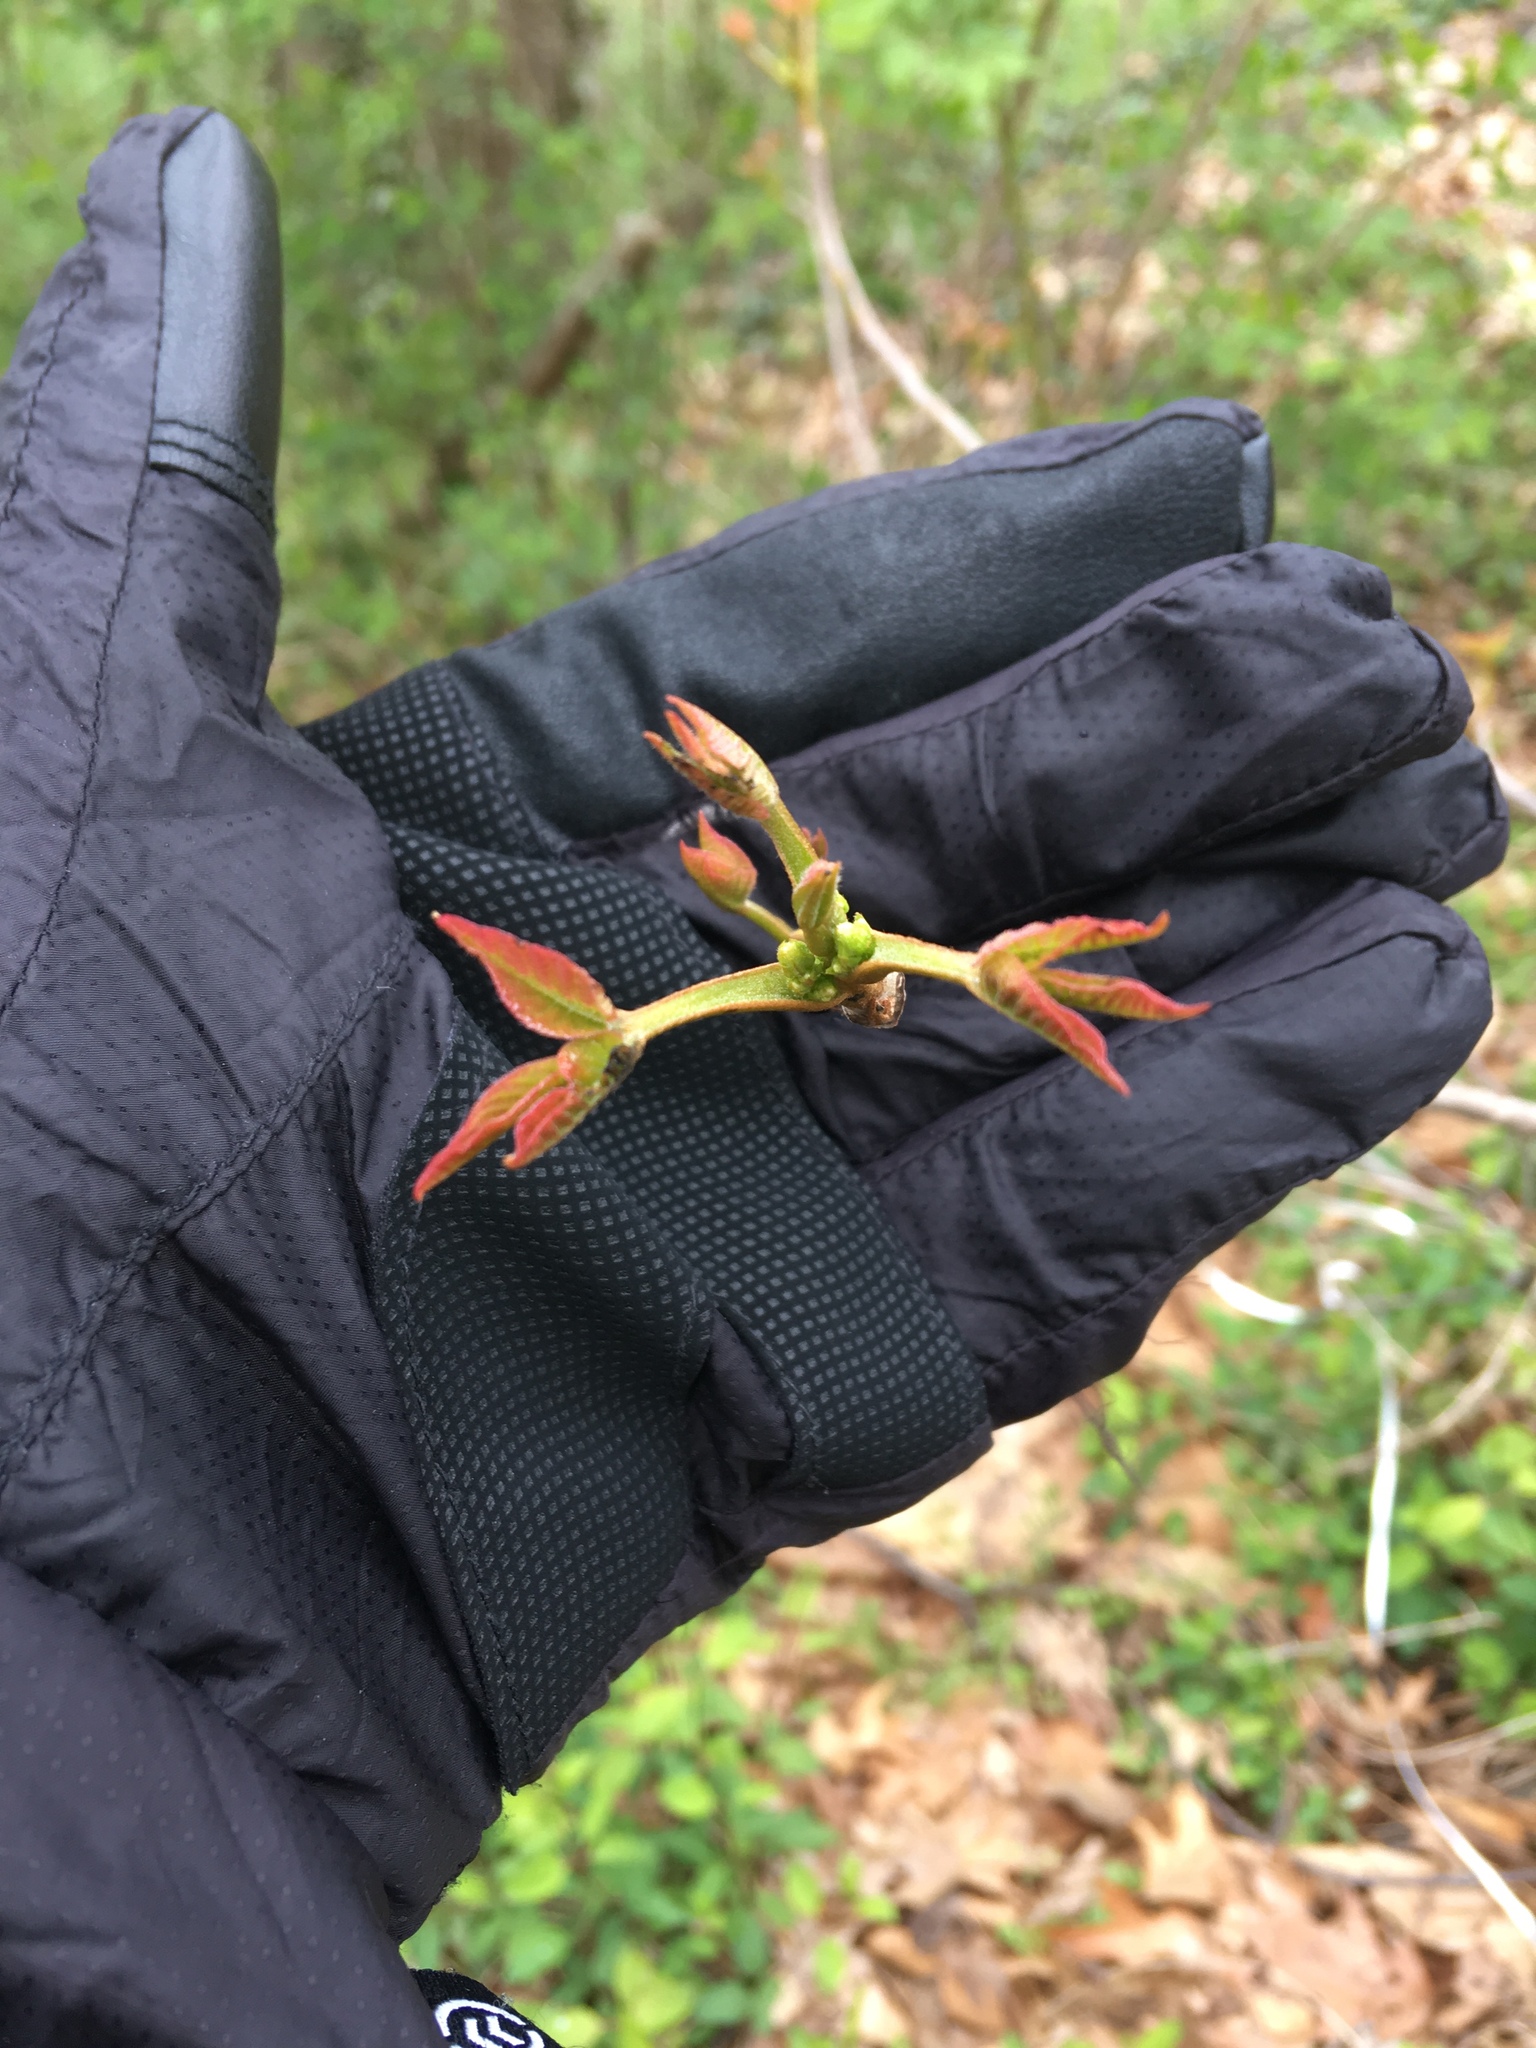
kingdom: Plantae
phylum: Tracheophyta
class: Magnoliopsida
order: Sapindales
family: Anacardiaceae
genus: Toxicodendron
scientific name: Toxicodendron radicans
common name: Poison ivy
